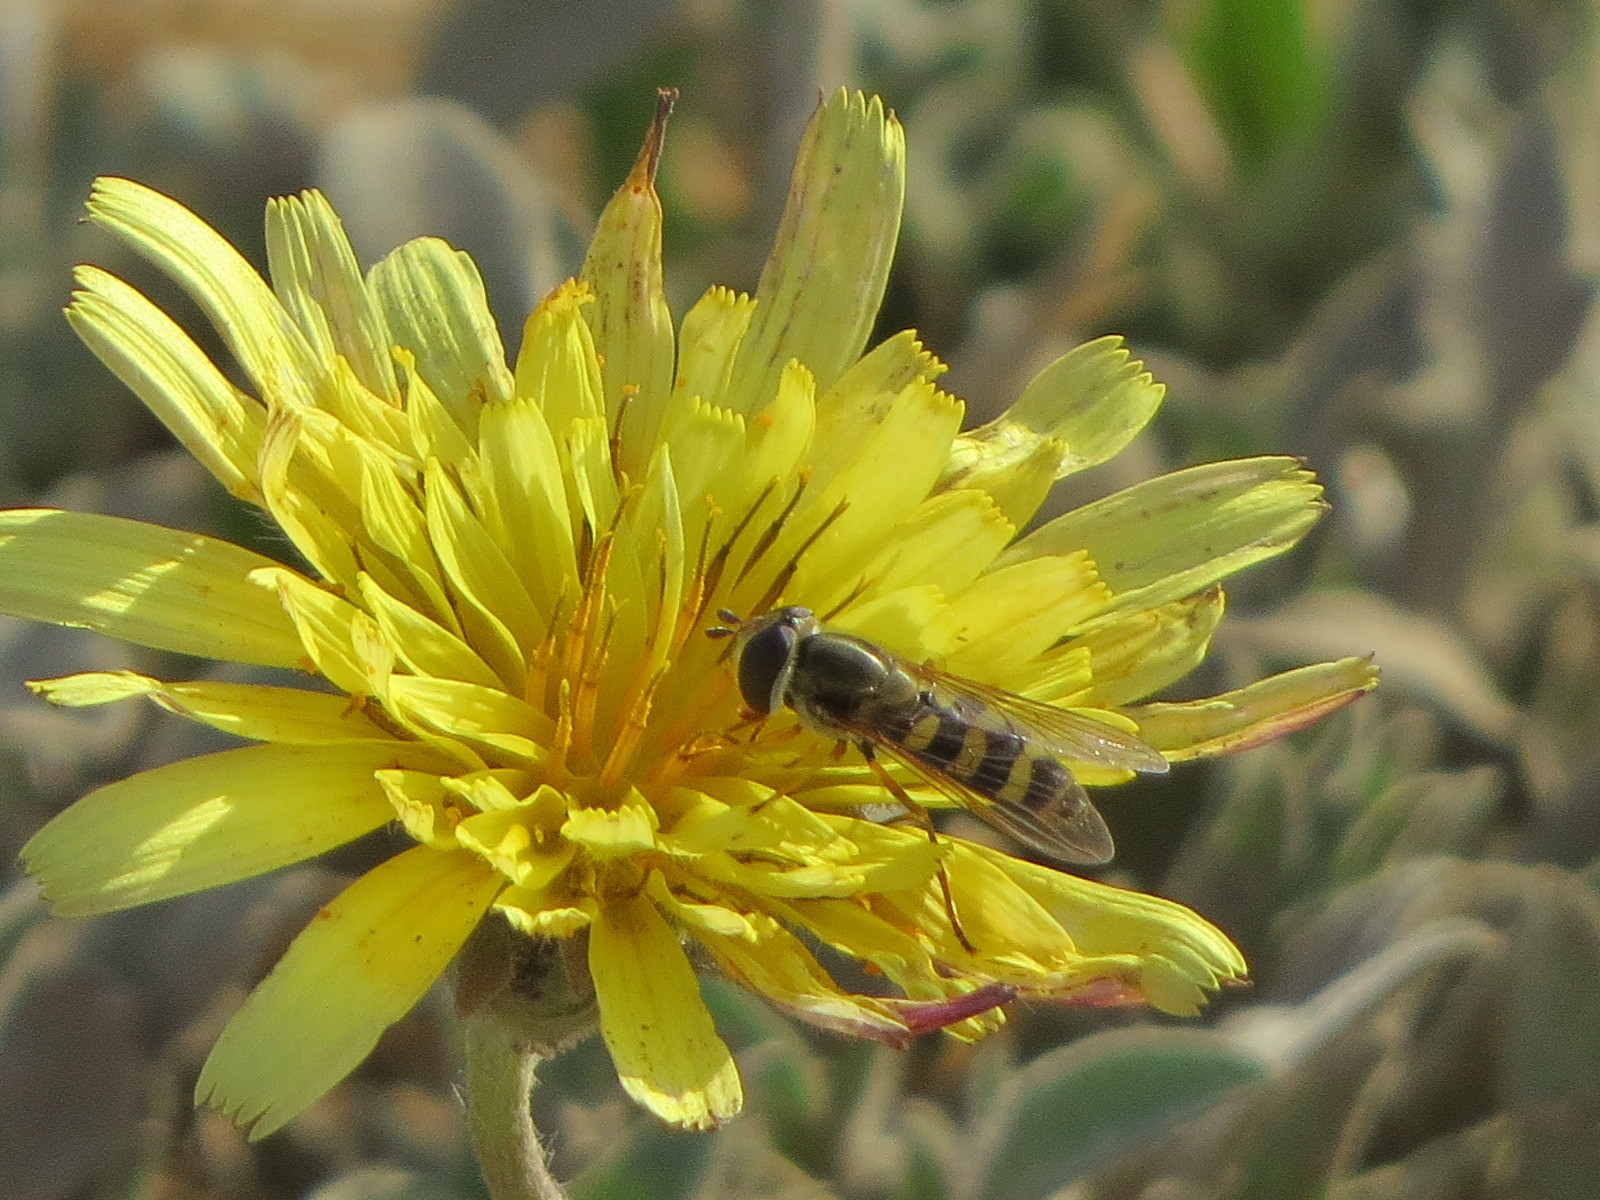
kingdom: Animalia
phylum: Arthropoda
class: Insecta
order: Diptera
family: Syrphidae
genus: Eupeodes
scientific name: Eupeodes fumipennis
